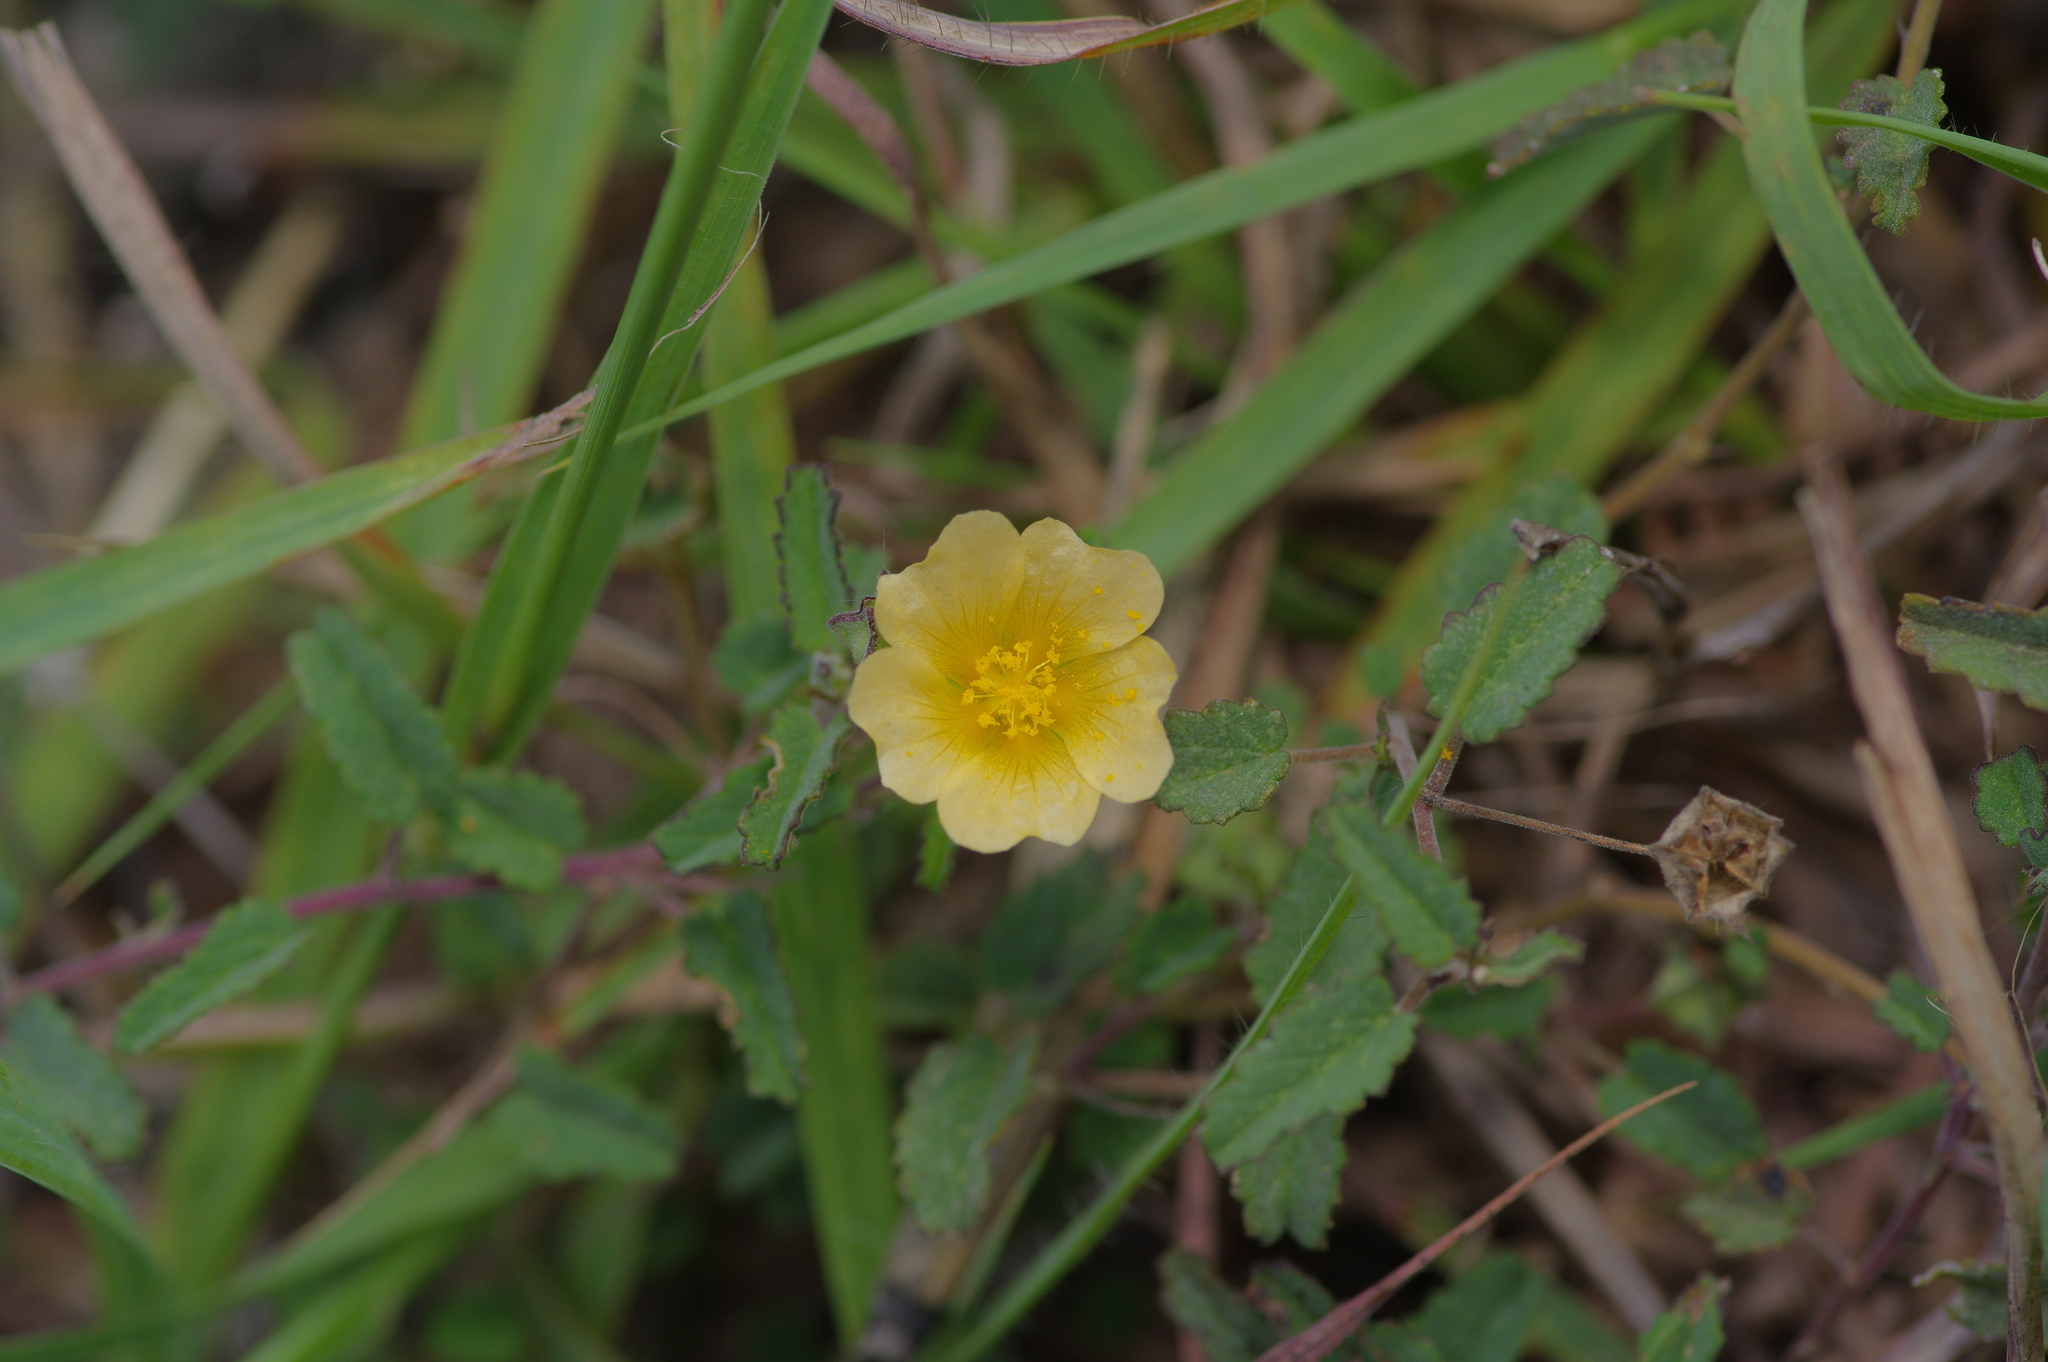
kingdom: Plantae
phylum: Tracheophyta
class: Magnoliopsida
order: Malvales
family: Malvaceae
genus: Sida
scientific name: Sida abutilifolia
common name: Spreading fanpetals
